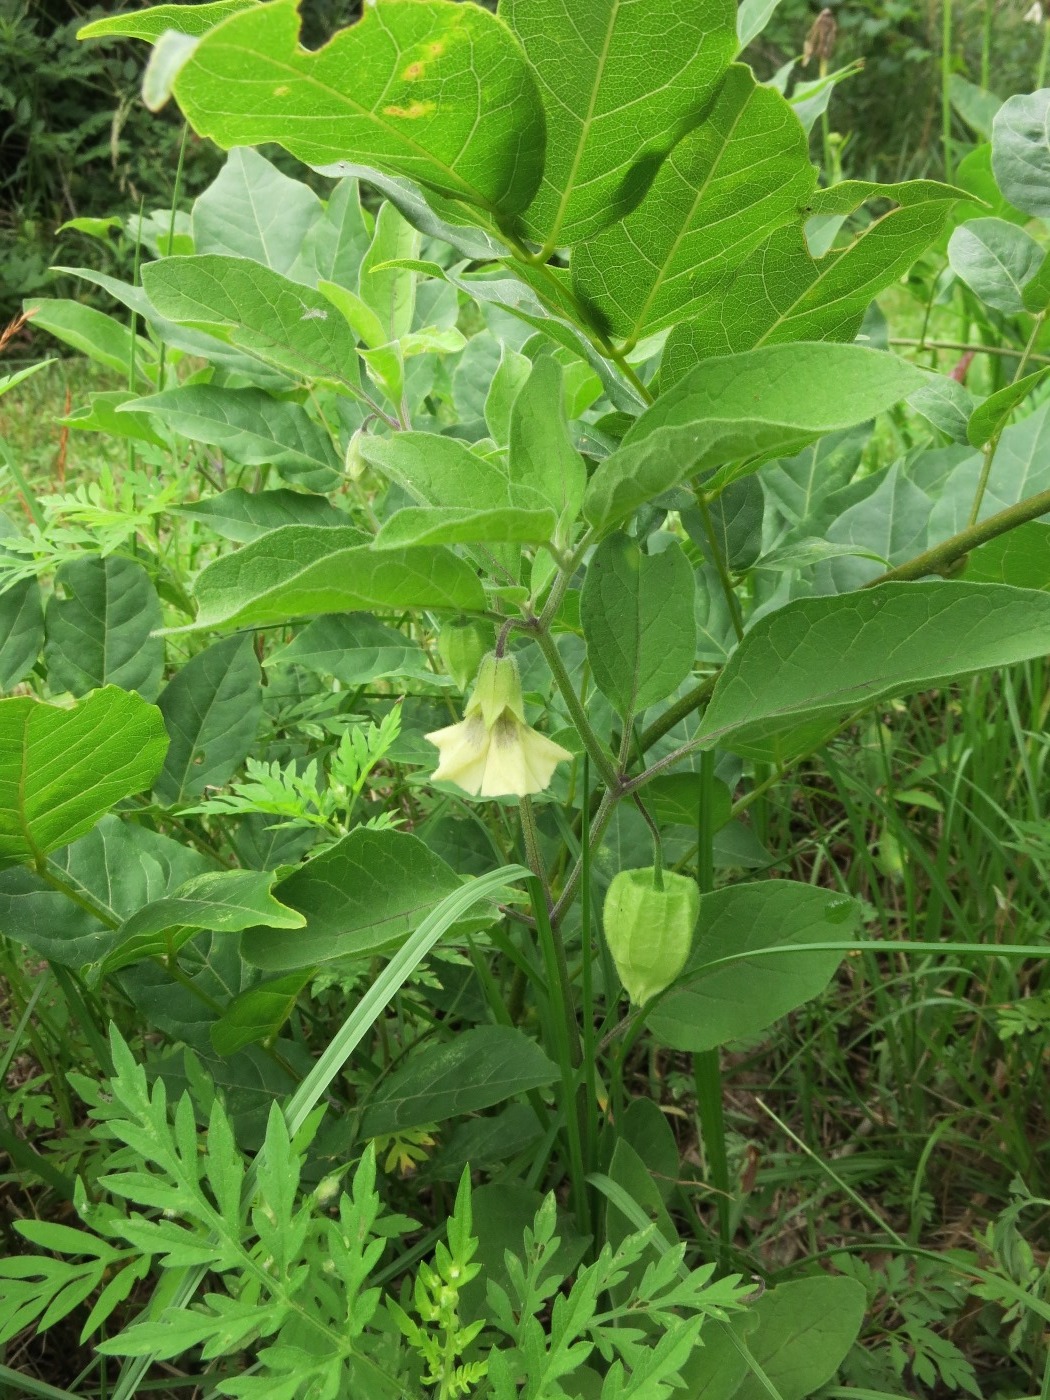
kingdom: Plantae
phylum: Tracheophyta
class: Magnoliopsida
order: Solanales
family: Solanaceae
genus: Physalis
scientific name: Physalis walteri
